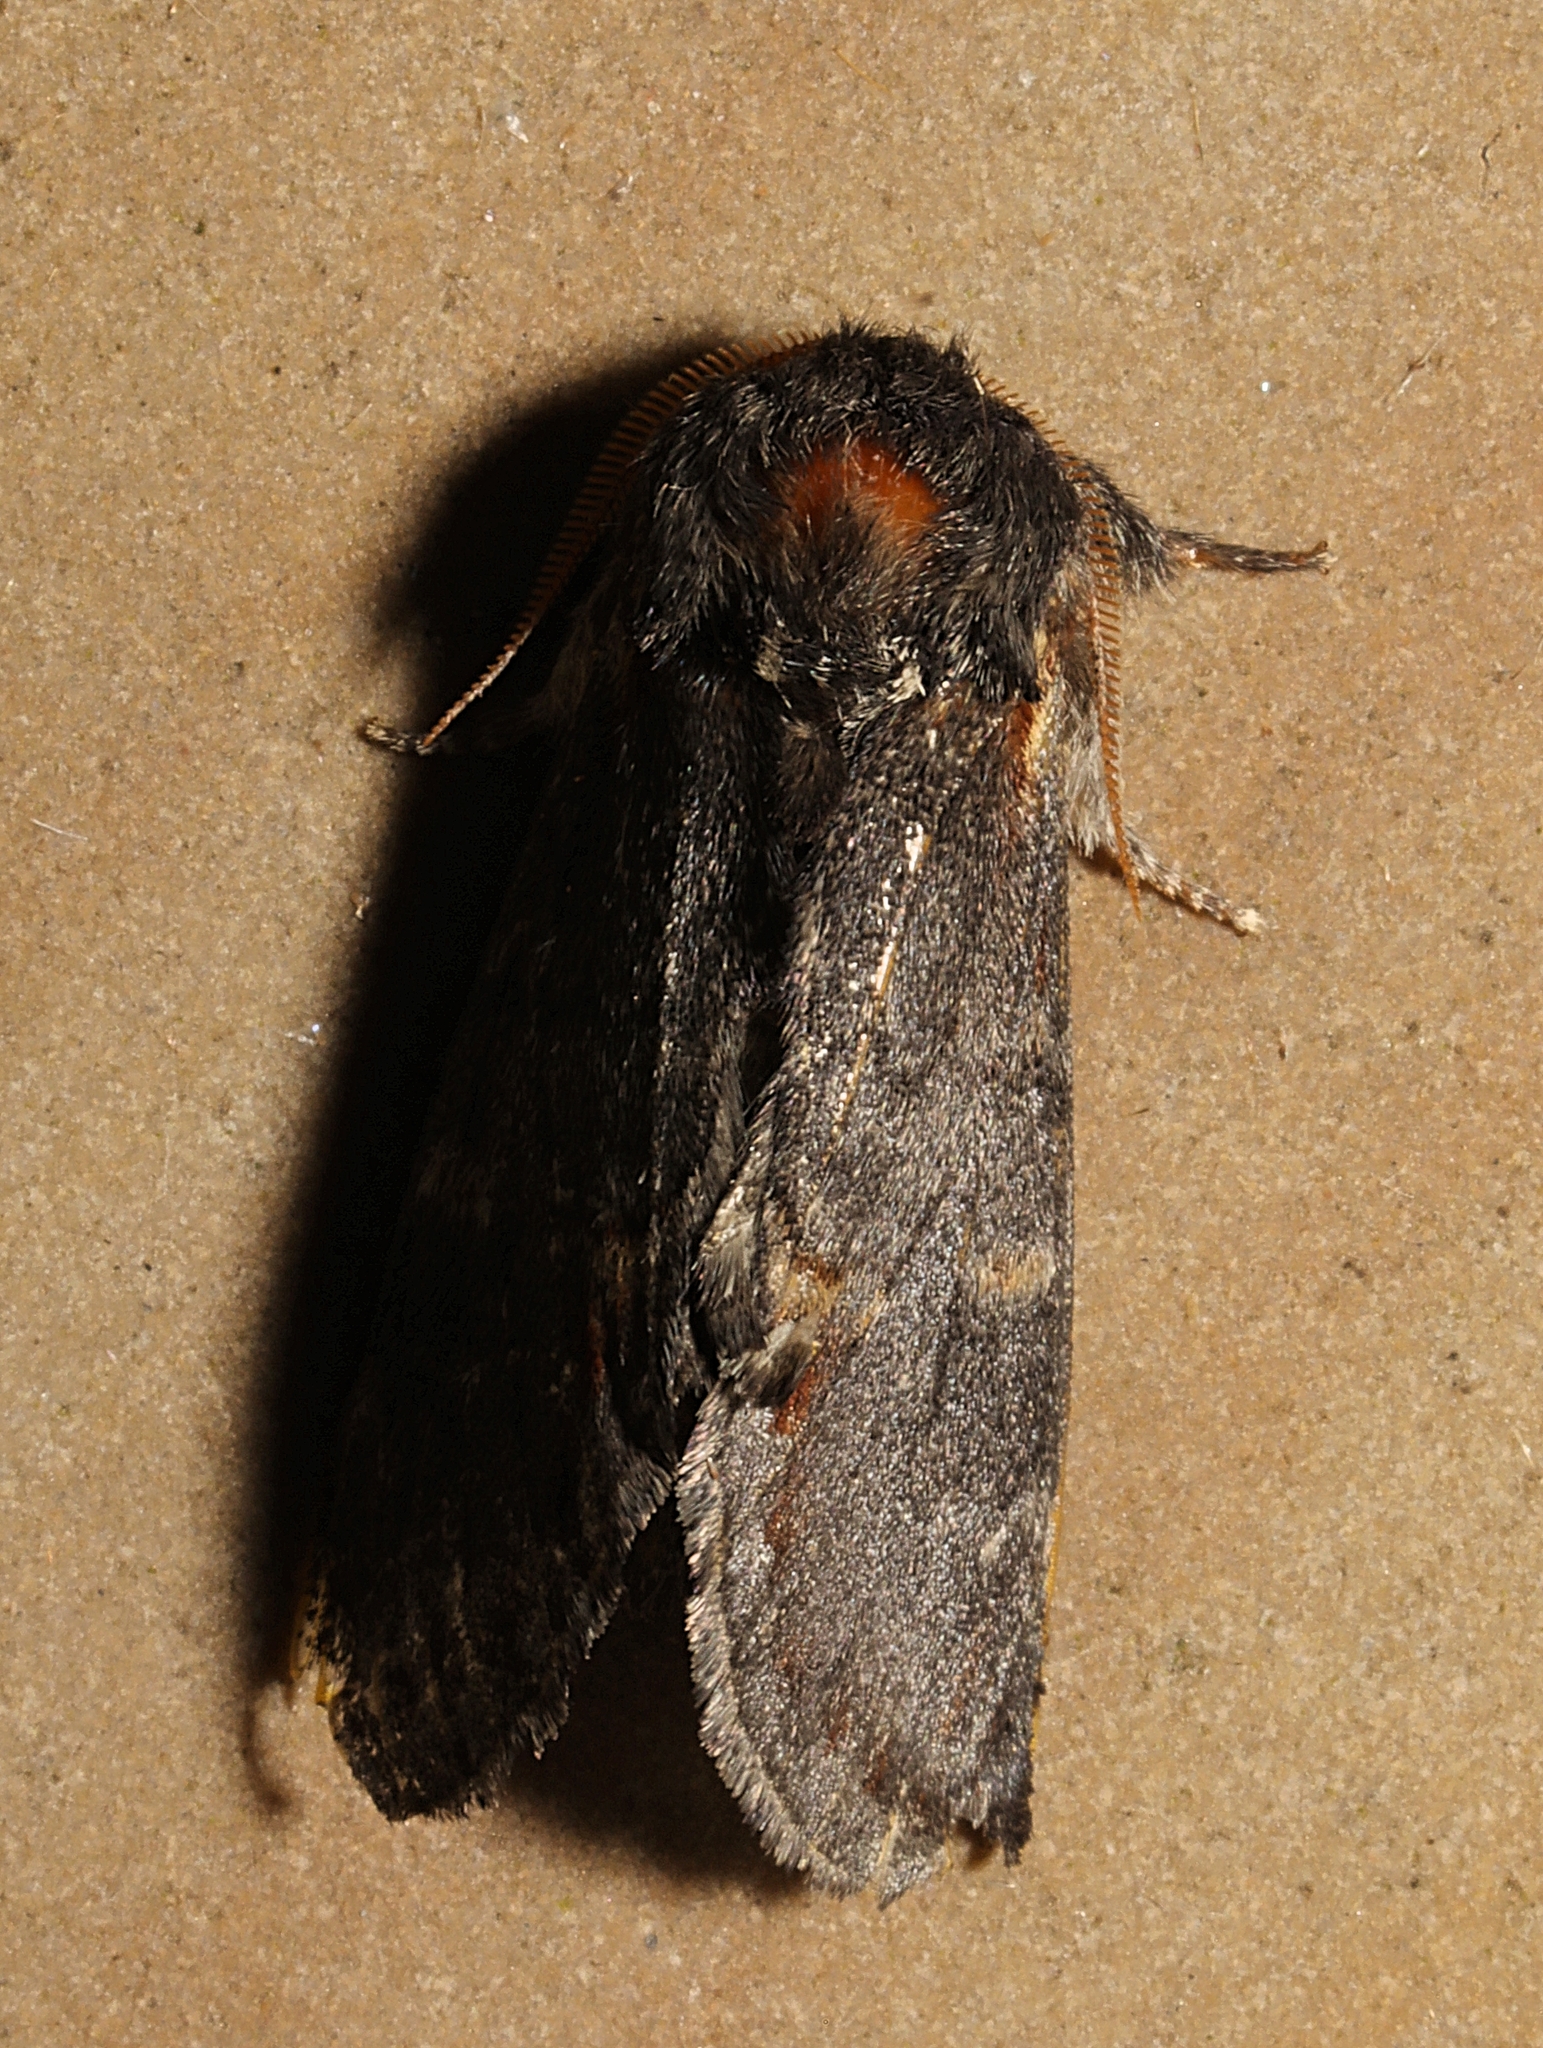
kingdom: Animalia
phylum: Arthropoda
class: Insecta
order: Lepidoptera
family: Notodontidae
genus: Notodonta
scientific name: Notodonta dromedarius
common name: Iron prominent
